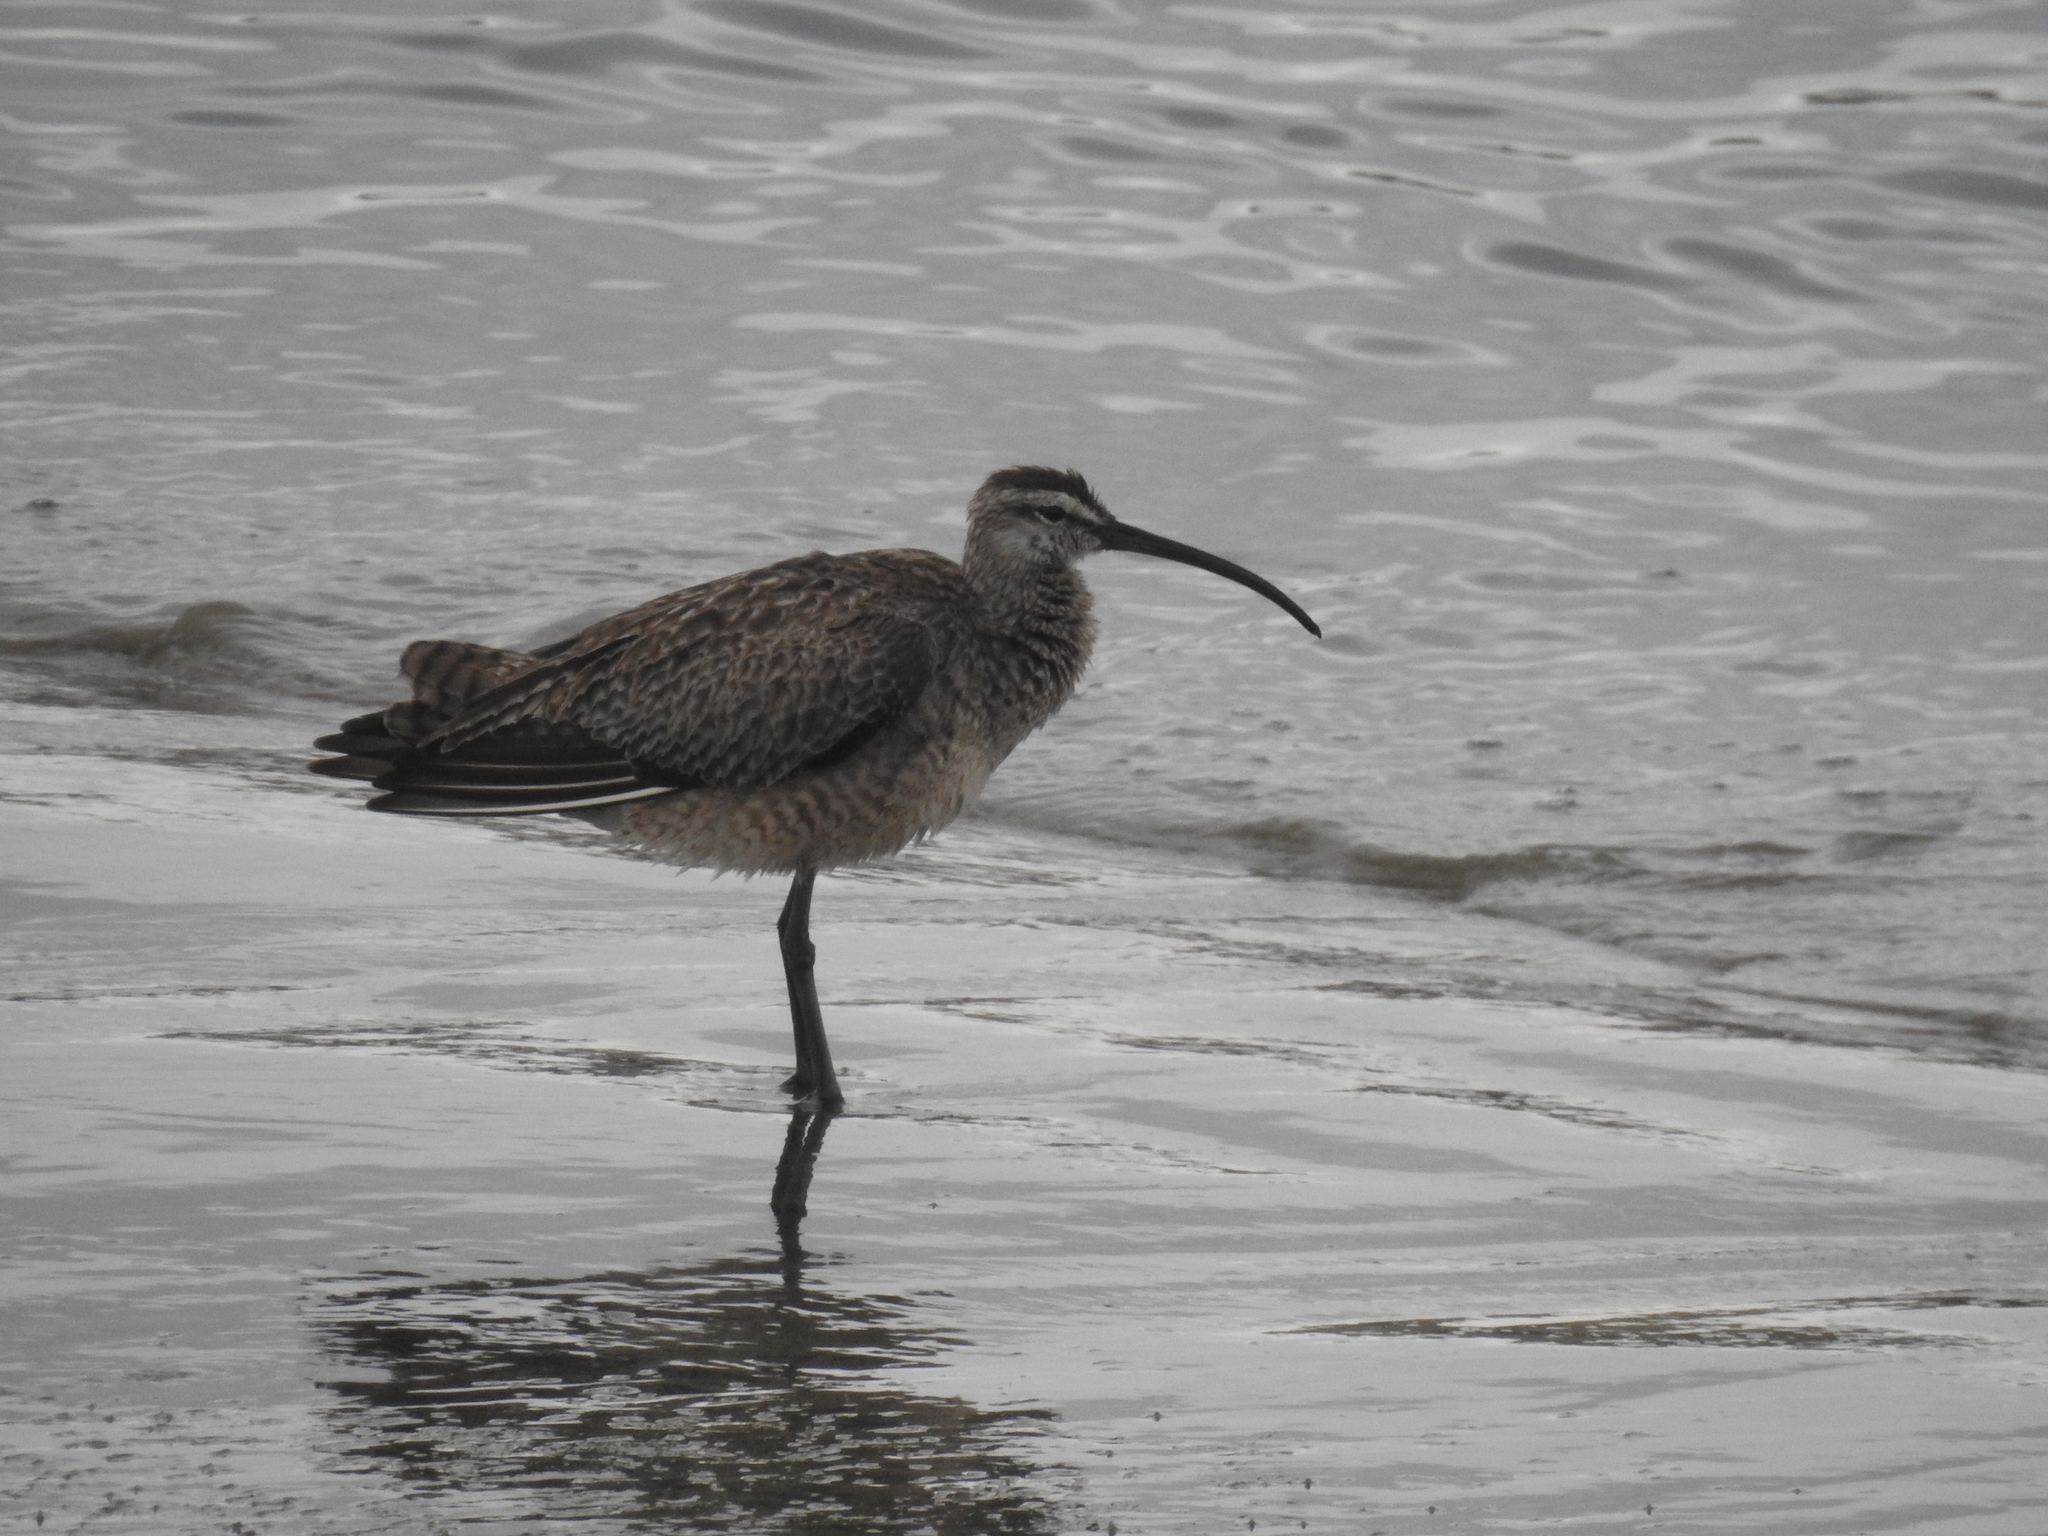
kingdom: Animalia
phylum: Chordata
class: Aves
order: Charadriiformes
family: Scolopacidae
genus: Numenius
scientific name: Numenius phaeopus
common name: Whimbrel
